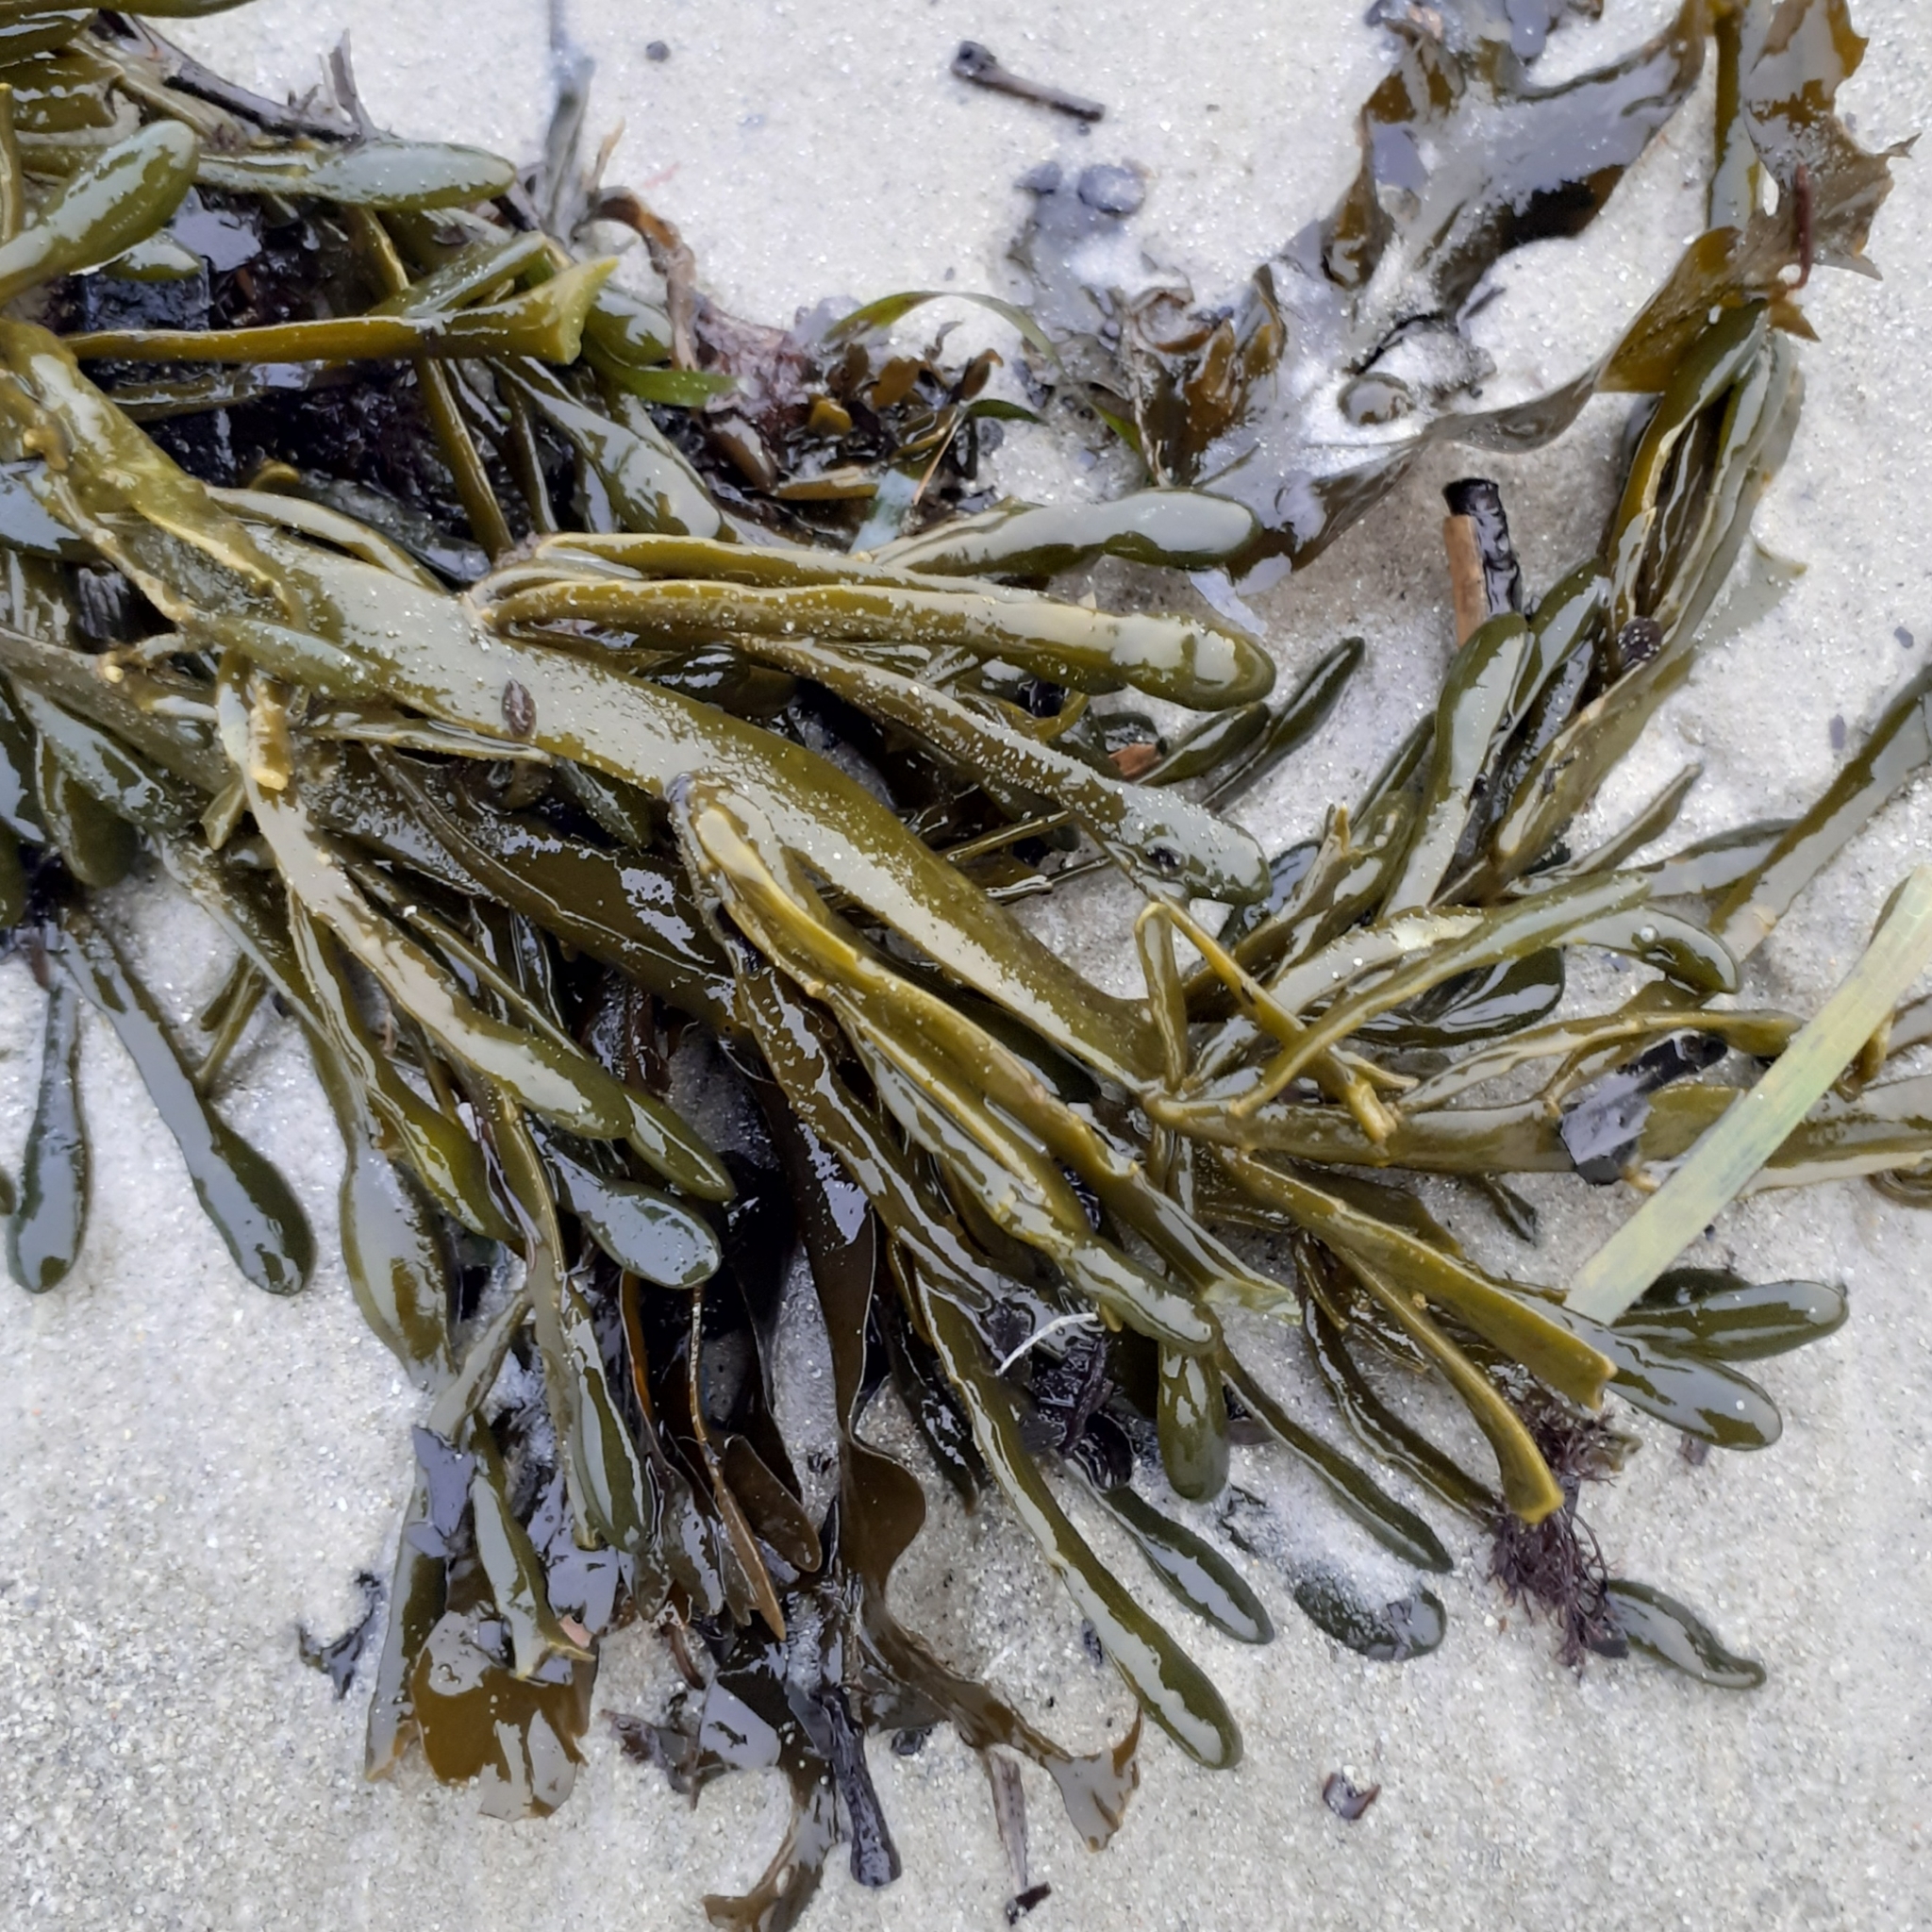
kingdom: Chromista
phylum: Ochrophyta
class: Phaeophyceae
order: Fucales
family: Fucaceae
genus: Ascophyllum
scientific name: Ascophyllum nodosum
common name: Knotted wrack
